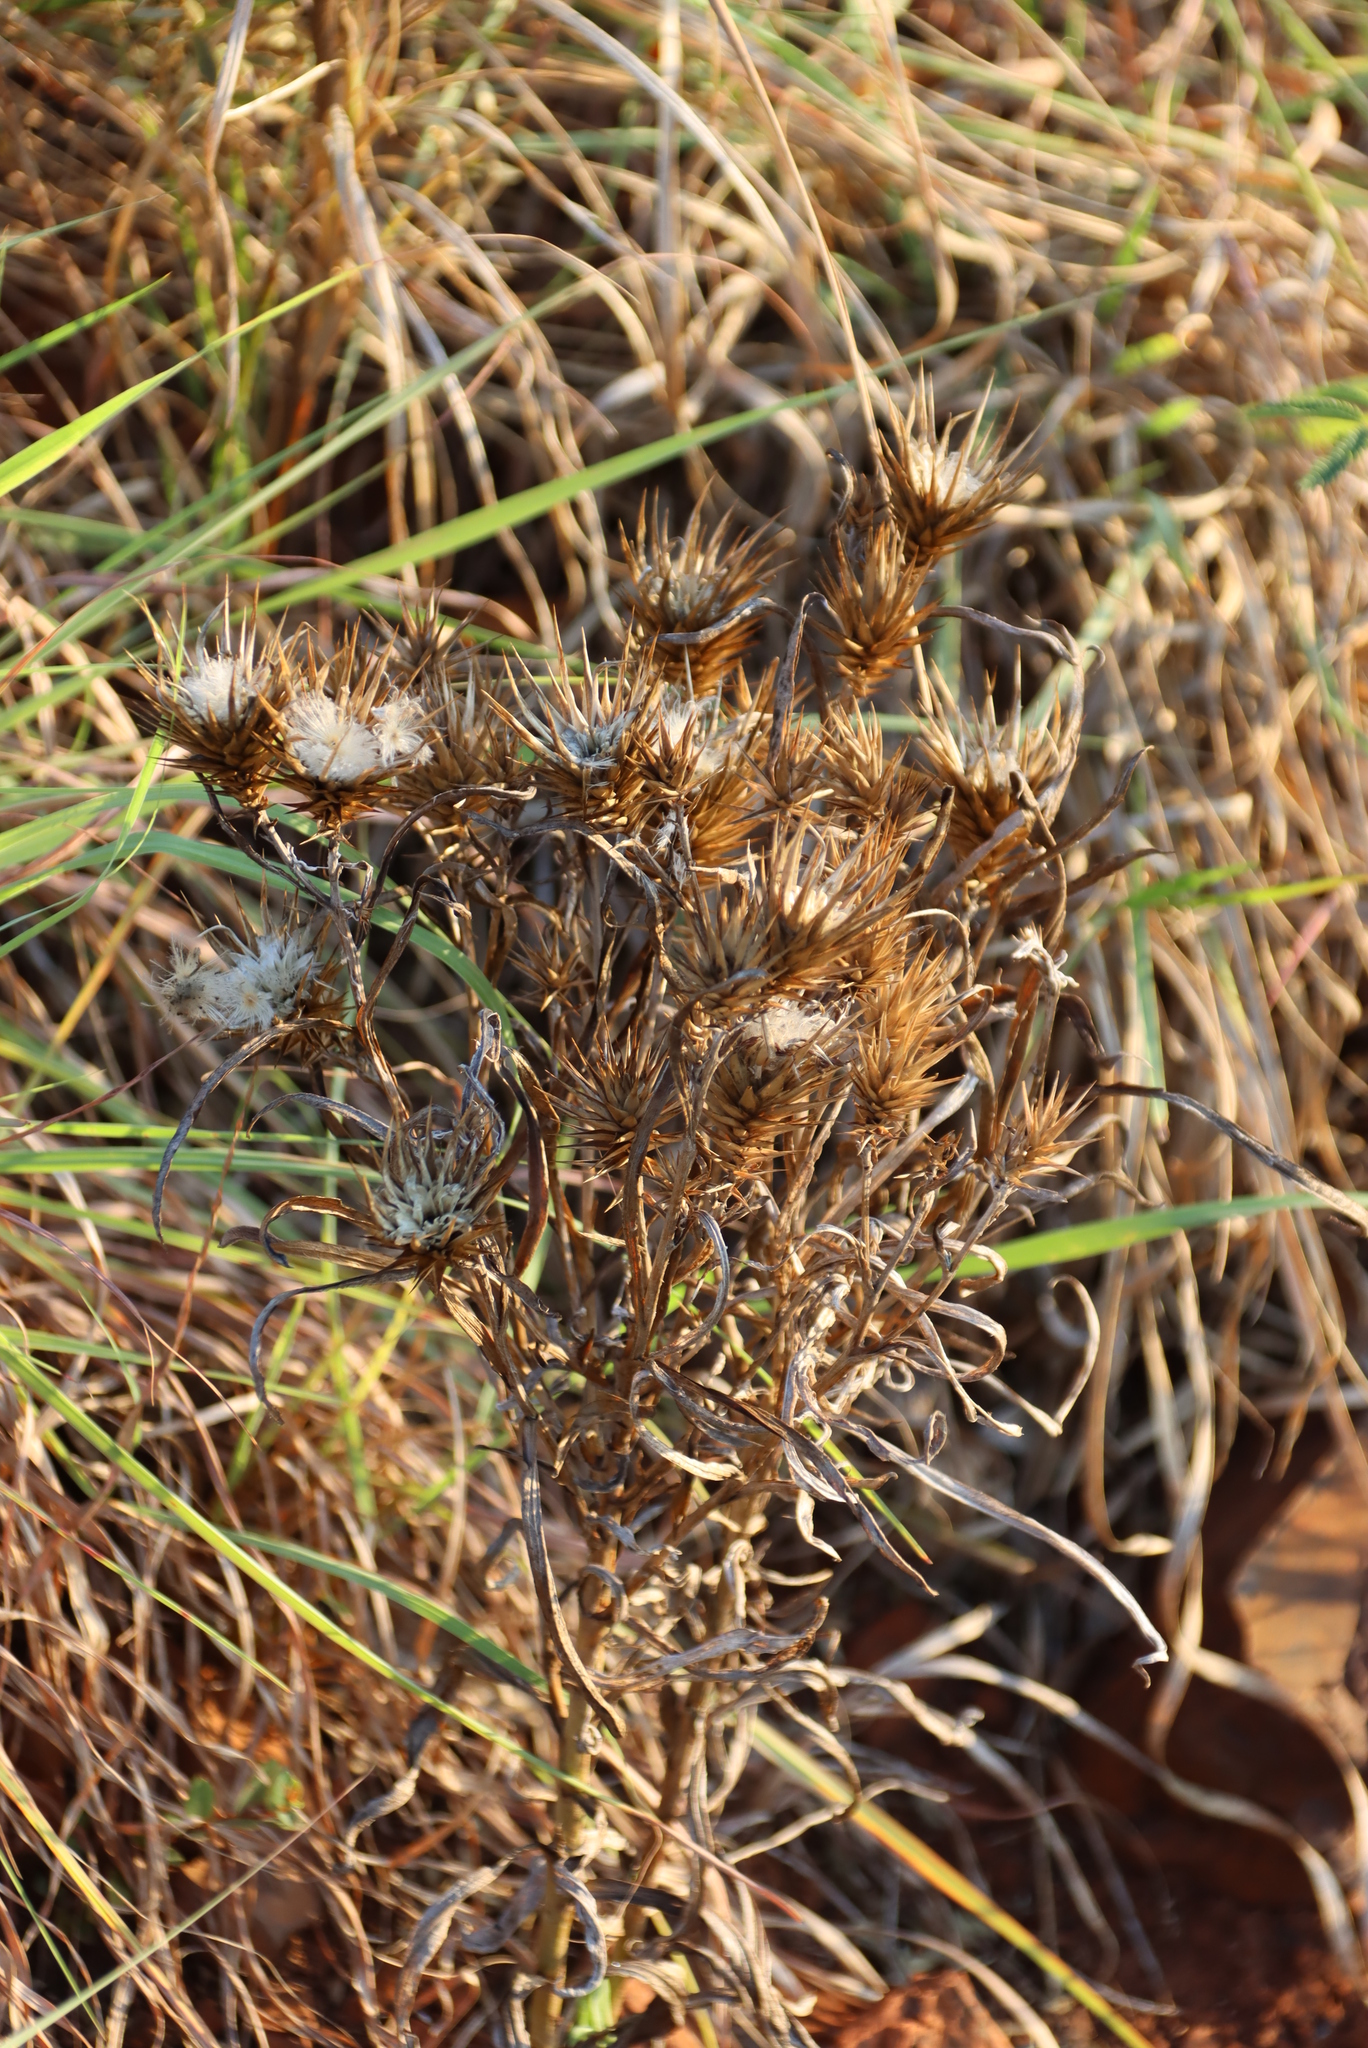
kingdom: Plantae
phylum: Tracheophyta
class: Magnoliopsida
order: Asterales
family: Asteraceae
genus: Macledium
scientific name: Macledium zeyheri
